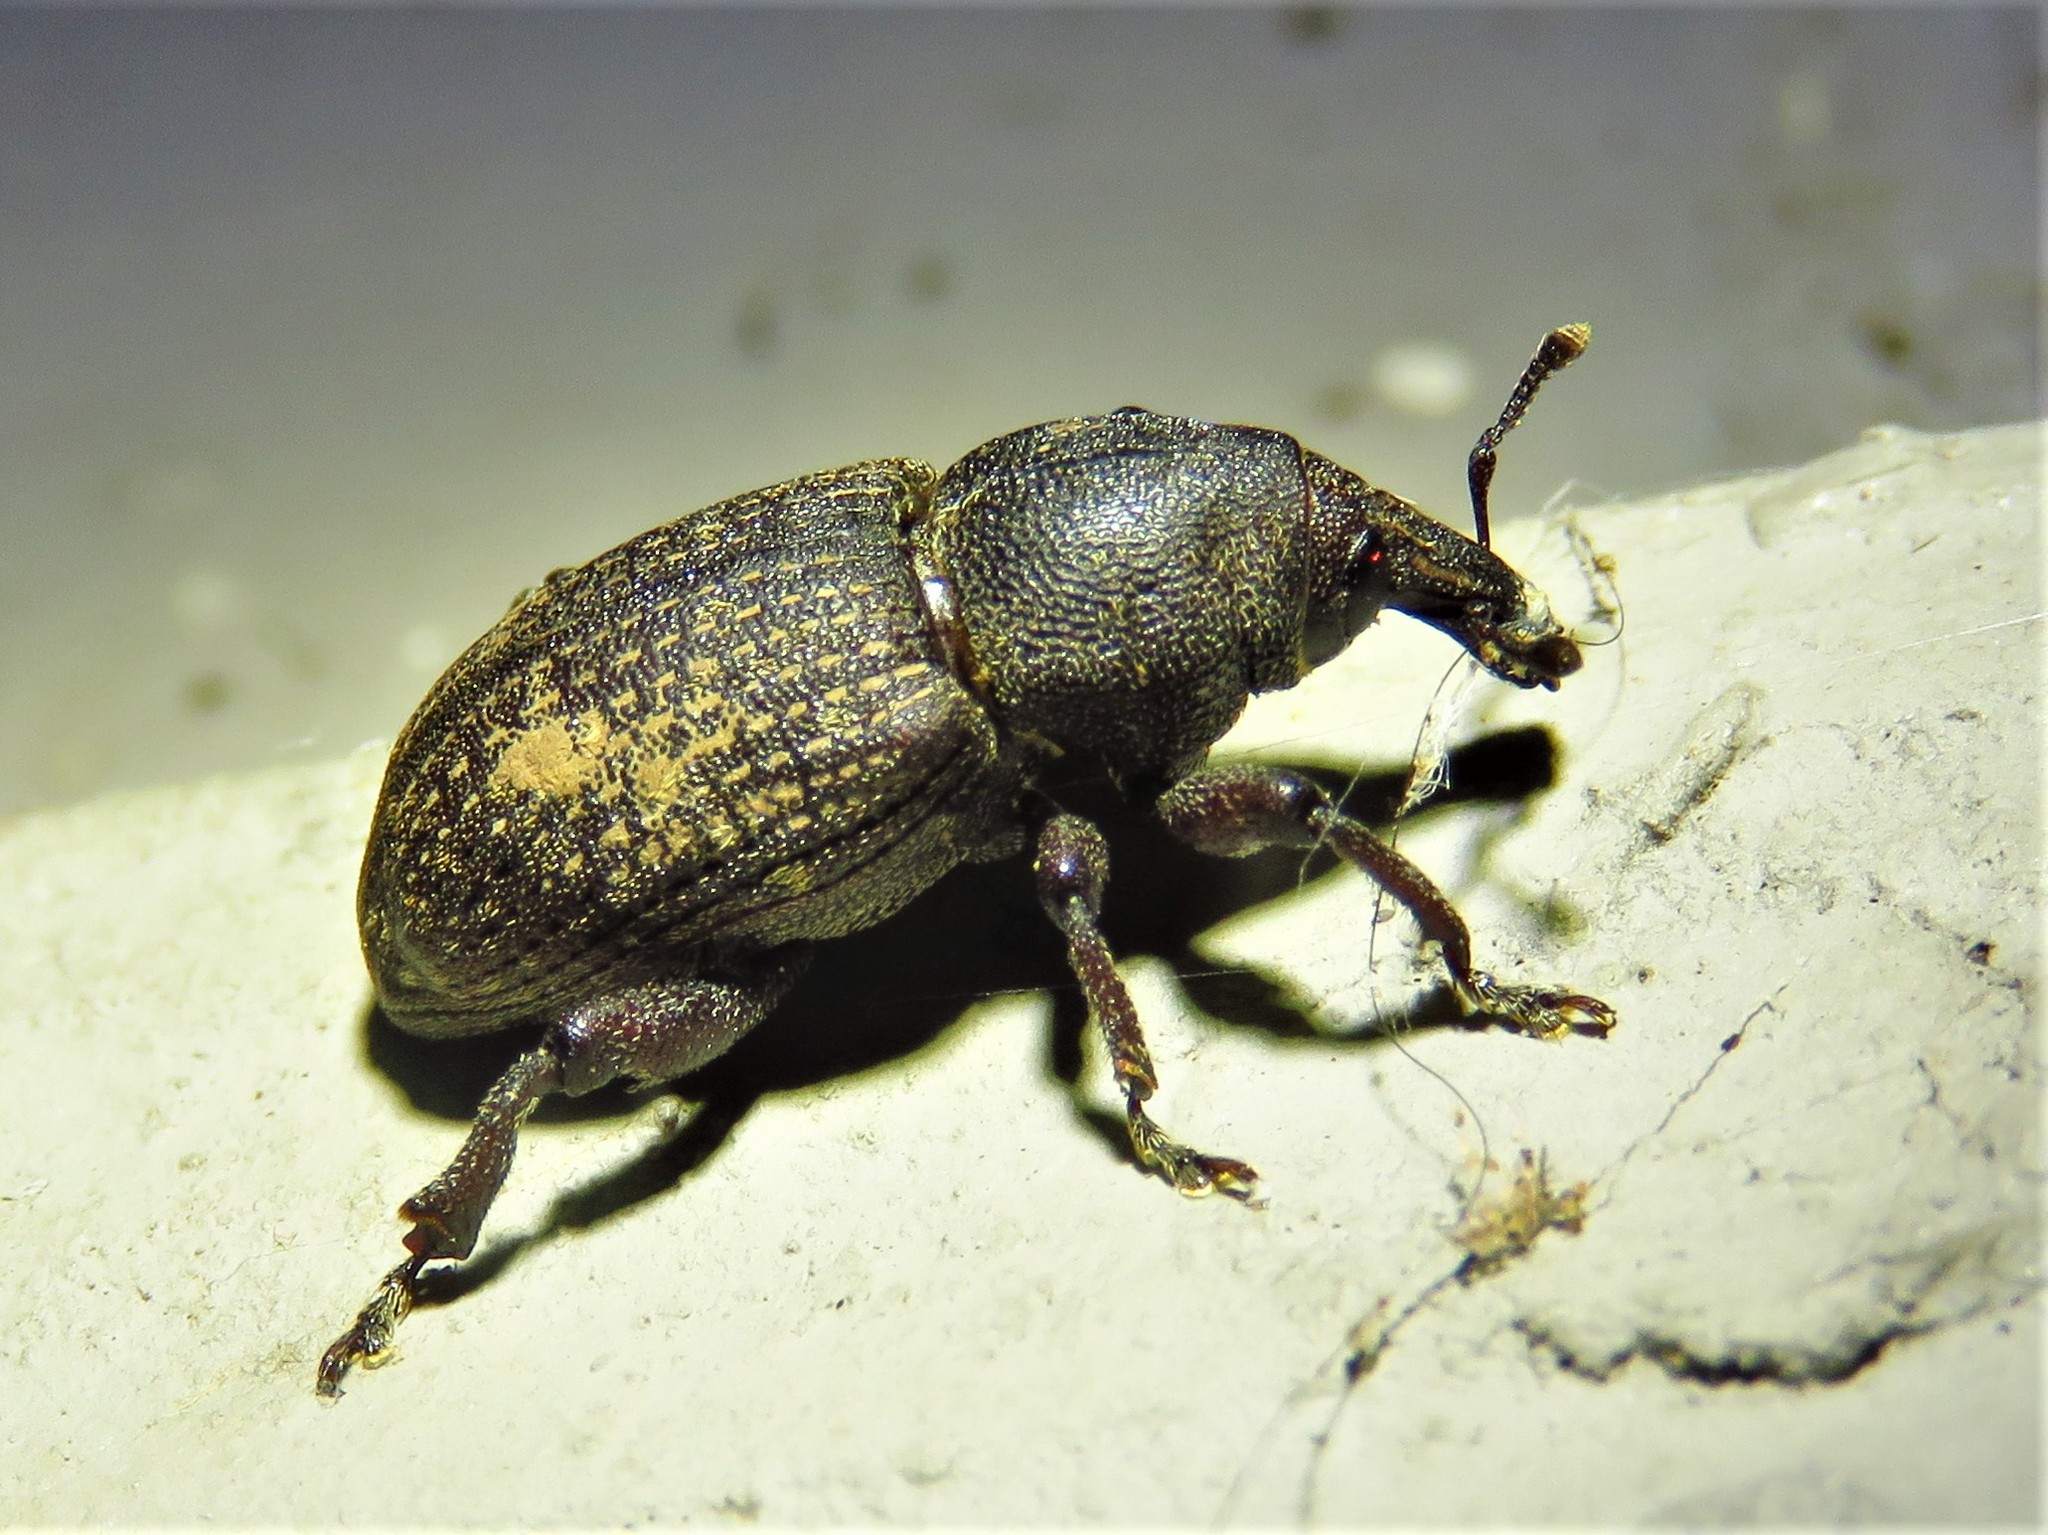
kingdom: Animalia
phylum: Arthropoda
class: Insecta
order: Coleoptera
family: Curculionidae
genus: Pachylobius
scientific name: Pachylobius picivorus
